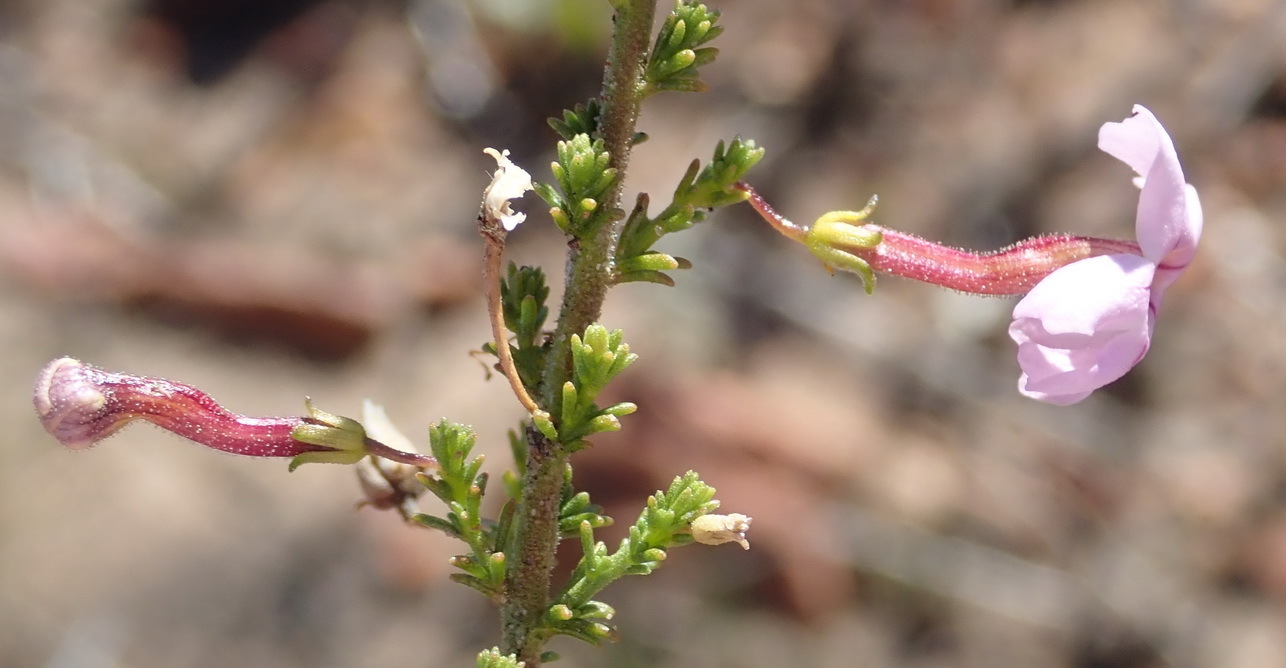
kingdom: Plantae
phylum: Tracheophyta
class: Magnoliopsida
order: Lamiales
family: Scrophulariaceae
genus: Jamesbrittenia
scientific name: Jamesbrittenia tortuosa
